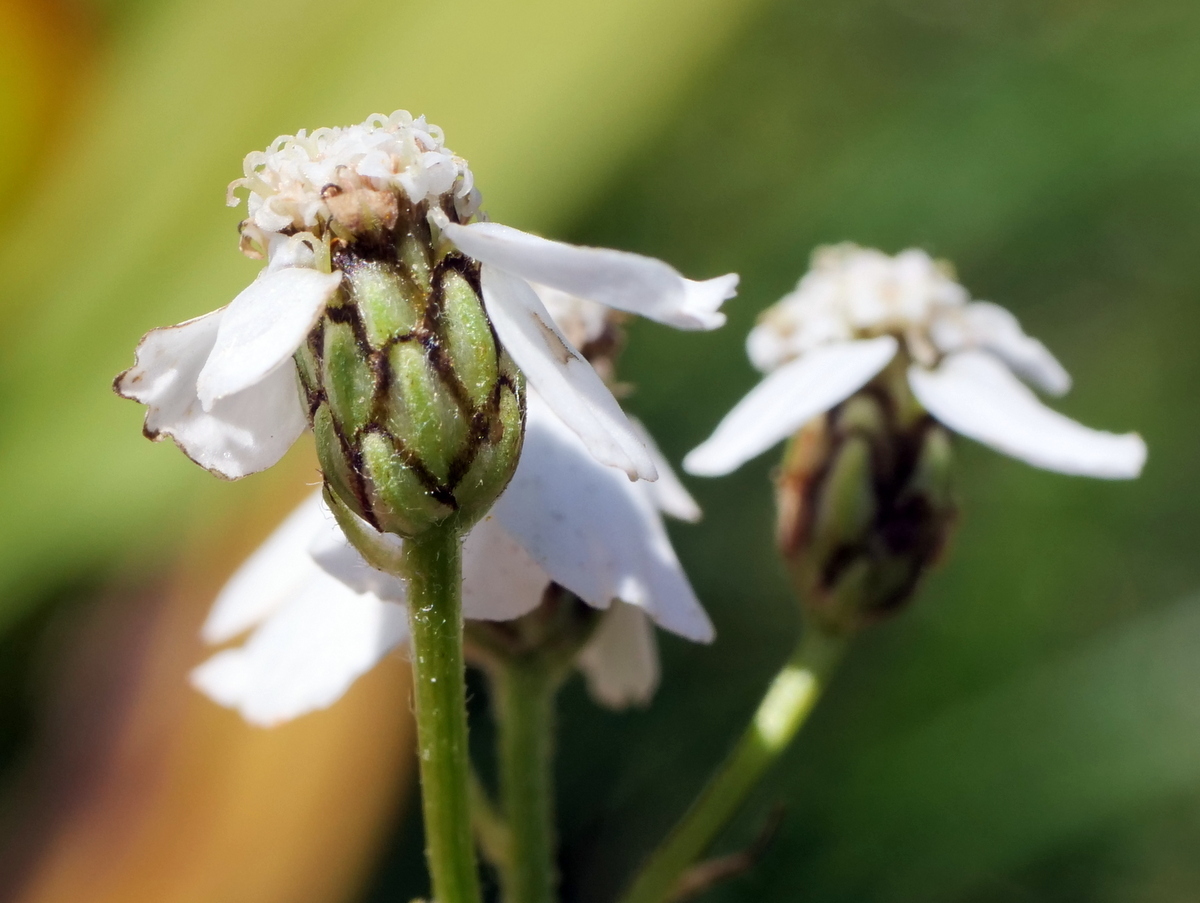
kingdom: Plantae
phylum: Tracheophyta
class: Magnoliopsida
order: Asterales
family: Asteraceae
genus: Achillea
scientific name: Achillea macrophylla
